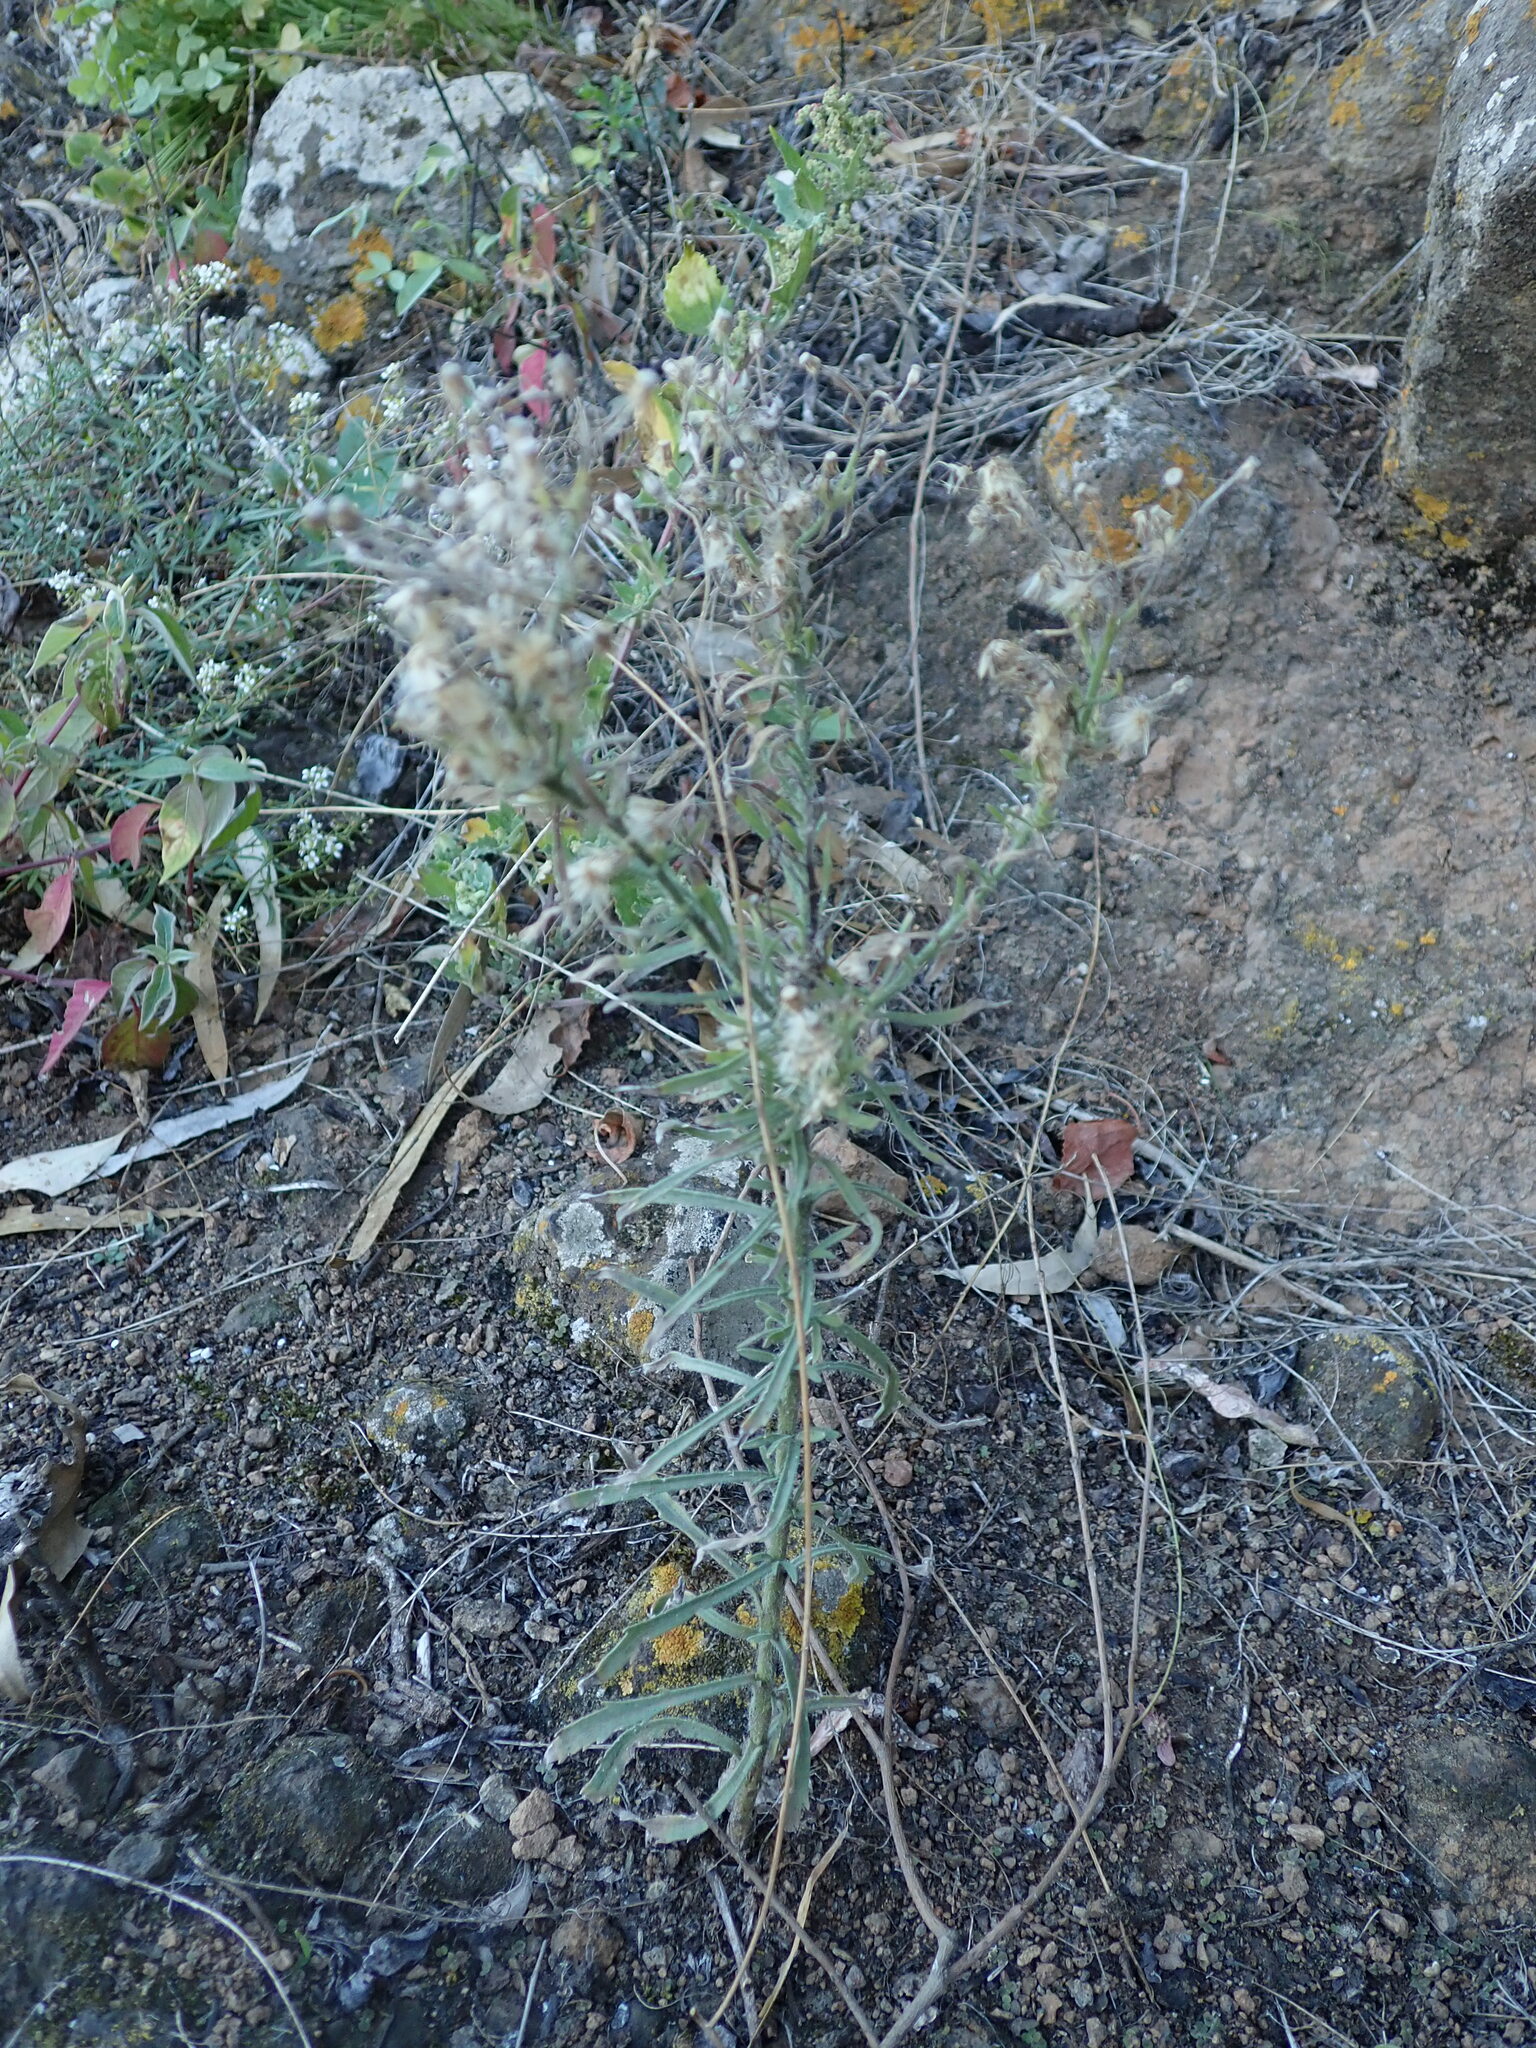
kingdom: Plantae
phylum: Tracheophyta
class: Magnoliopsida
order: Asterales
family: Asteraceae
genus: Erigeron
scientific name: Erigeron bonariensis
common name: Argentine fleabane
